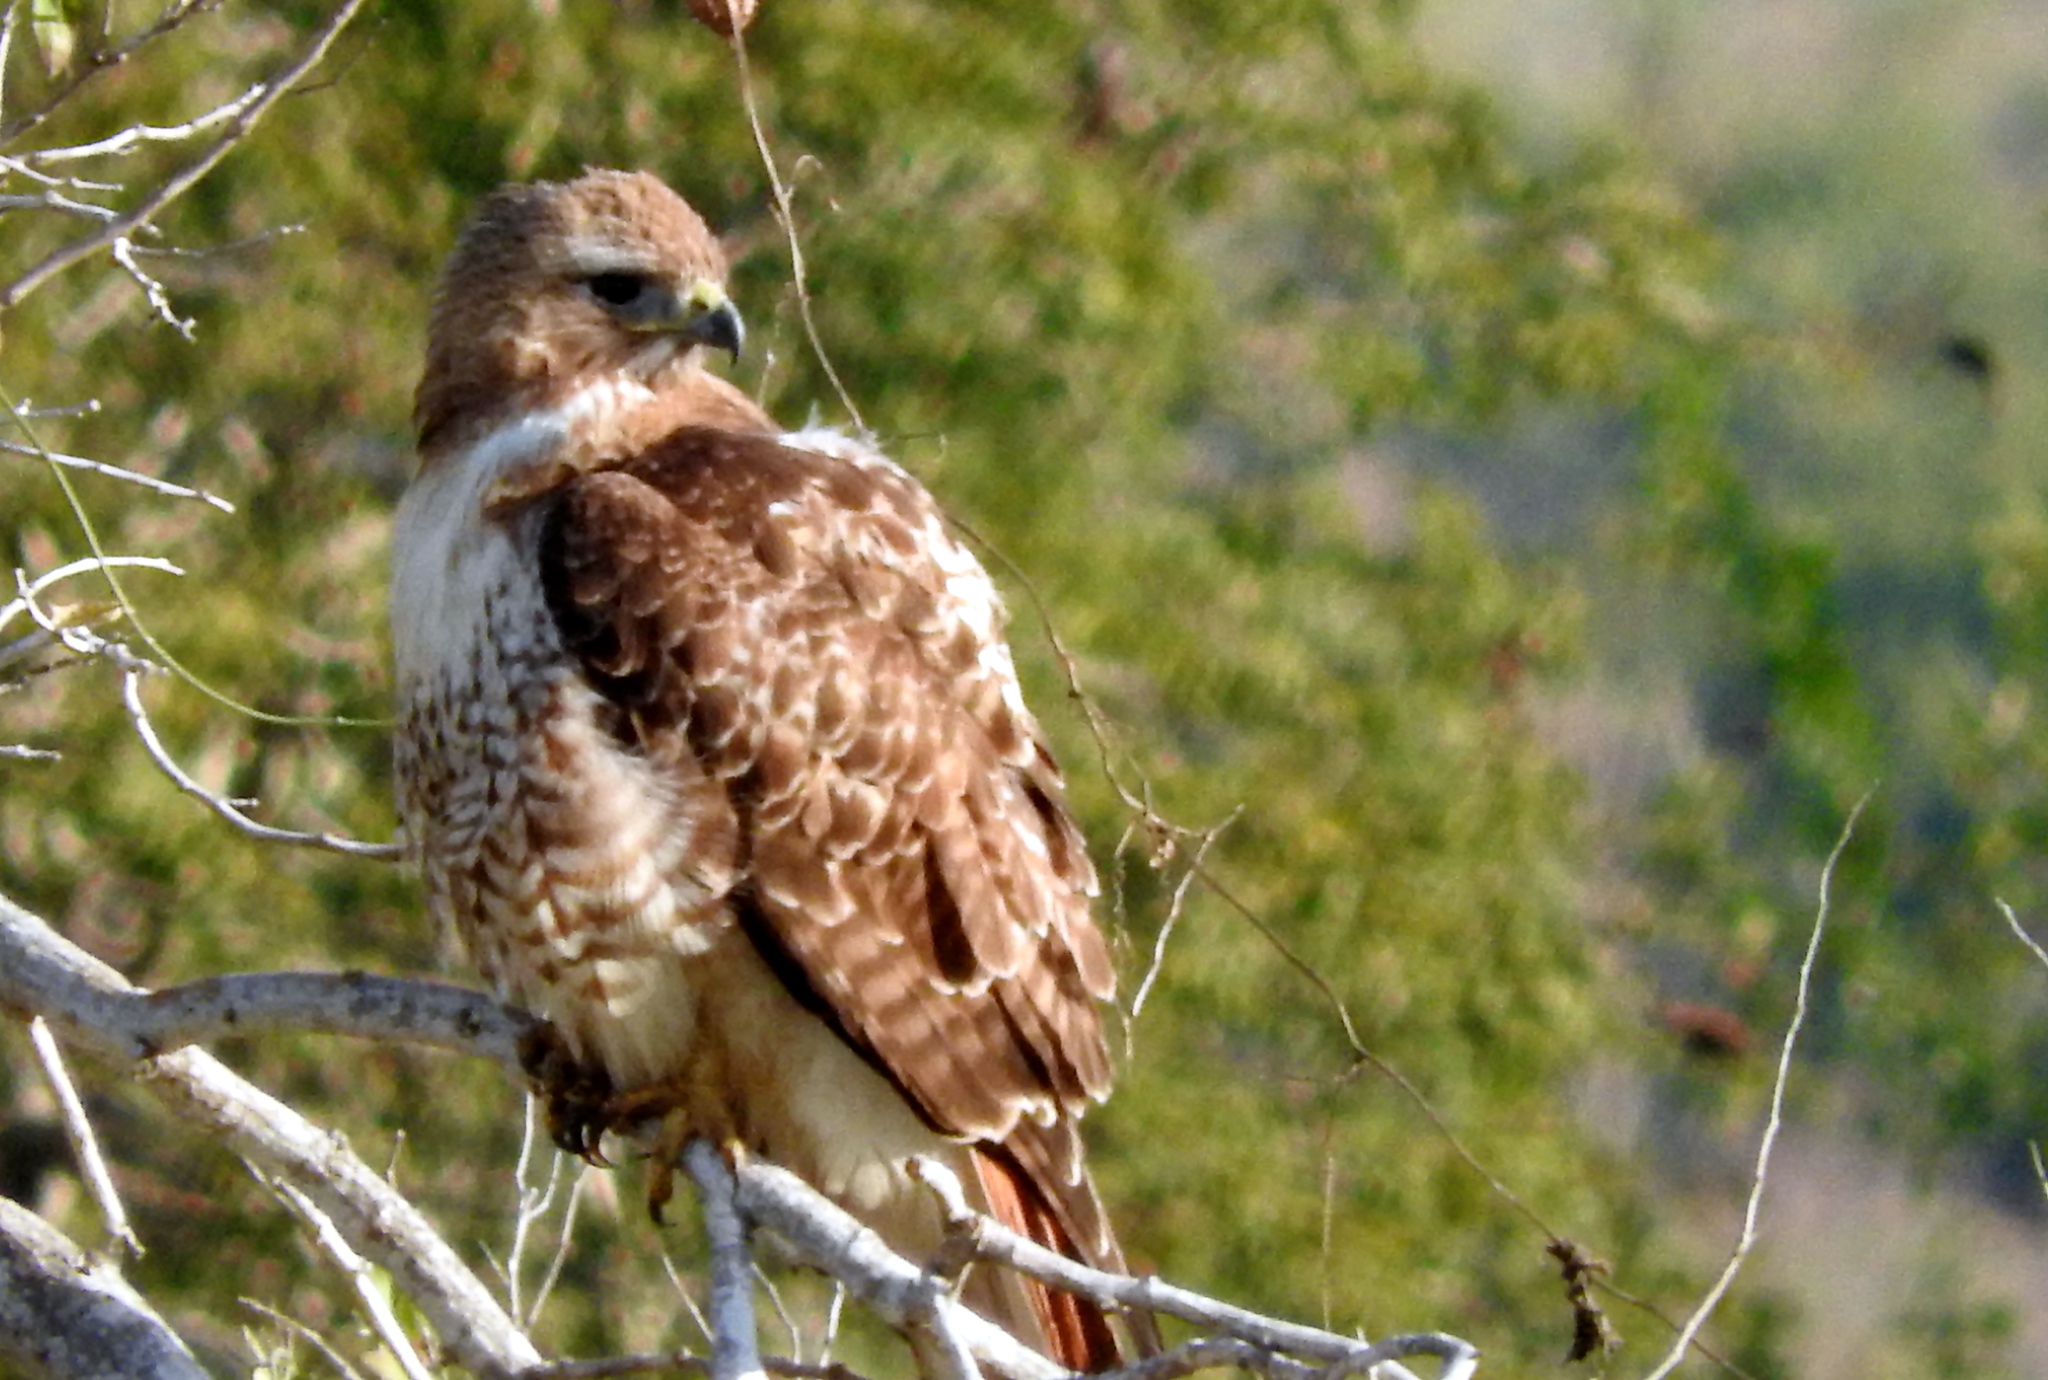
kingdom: Animalia
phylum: Chordata
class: Aves
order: Accipitriformes
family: Accipitridae
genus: Buteo
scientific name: Buteo jamaicensis
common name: Red-tailed hawk
